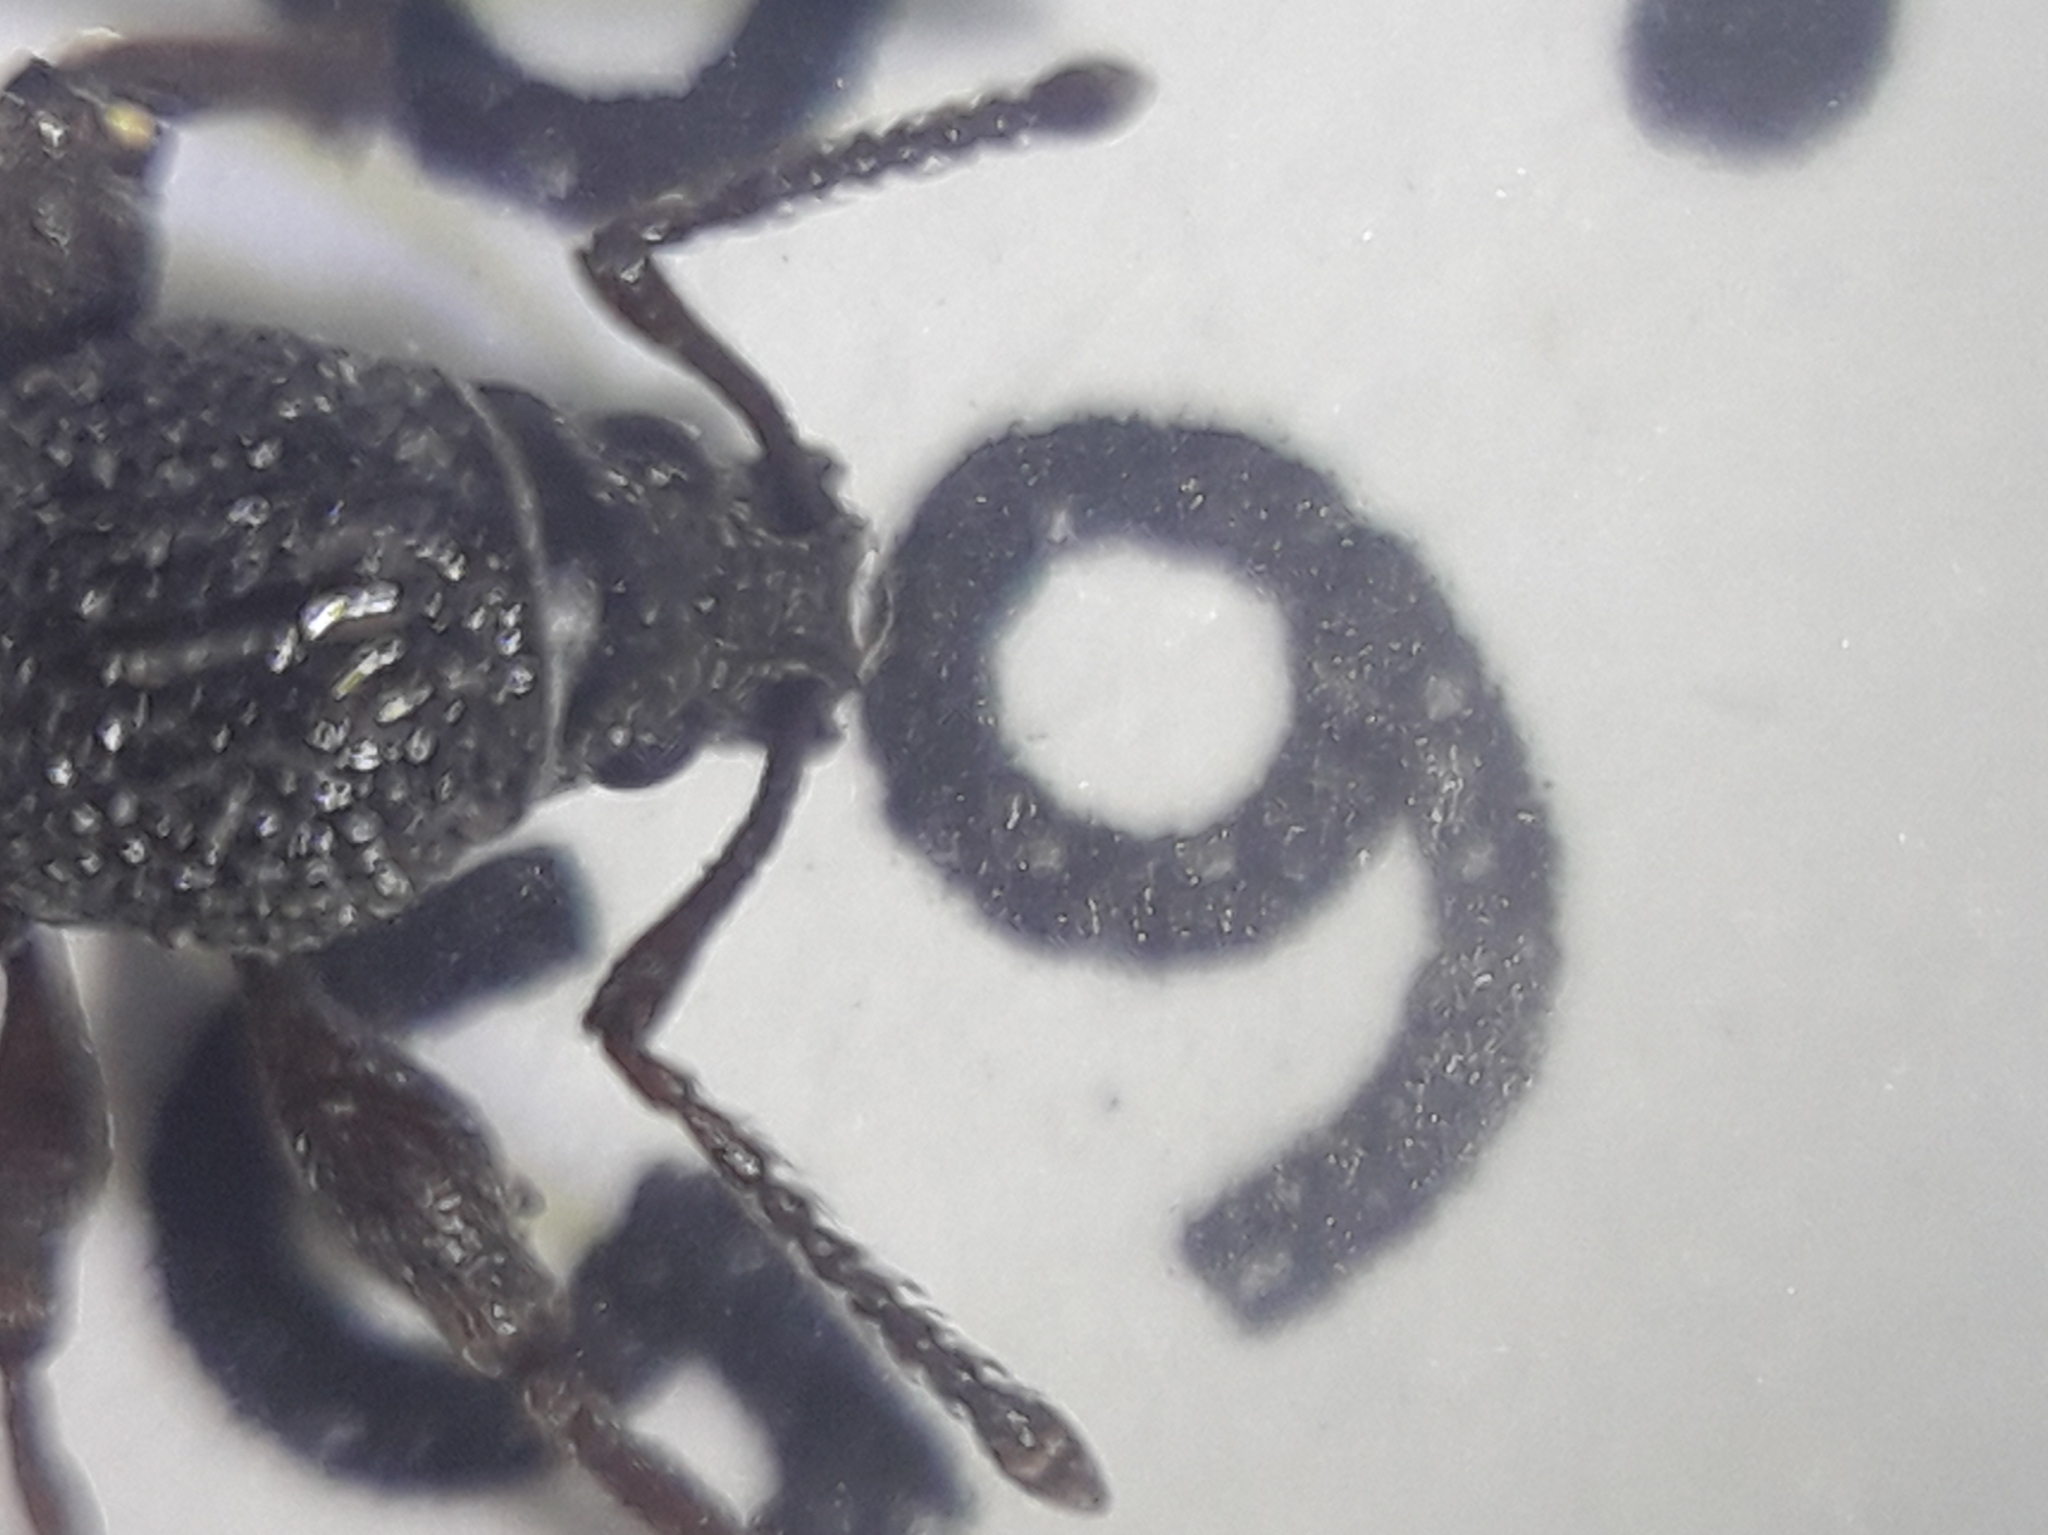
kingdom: Animalia
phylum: Arthropoda
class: Insecta
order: Coleoptera
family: Curculionidae
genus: Otiorhynchus
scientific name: Otiorhynchus ovatus
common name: Strawberry root weevil
